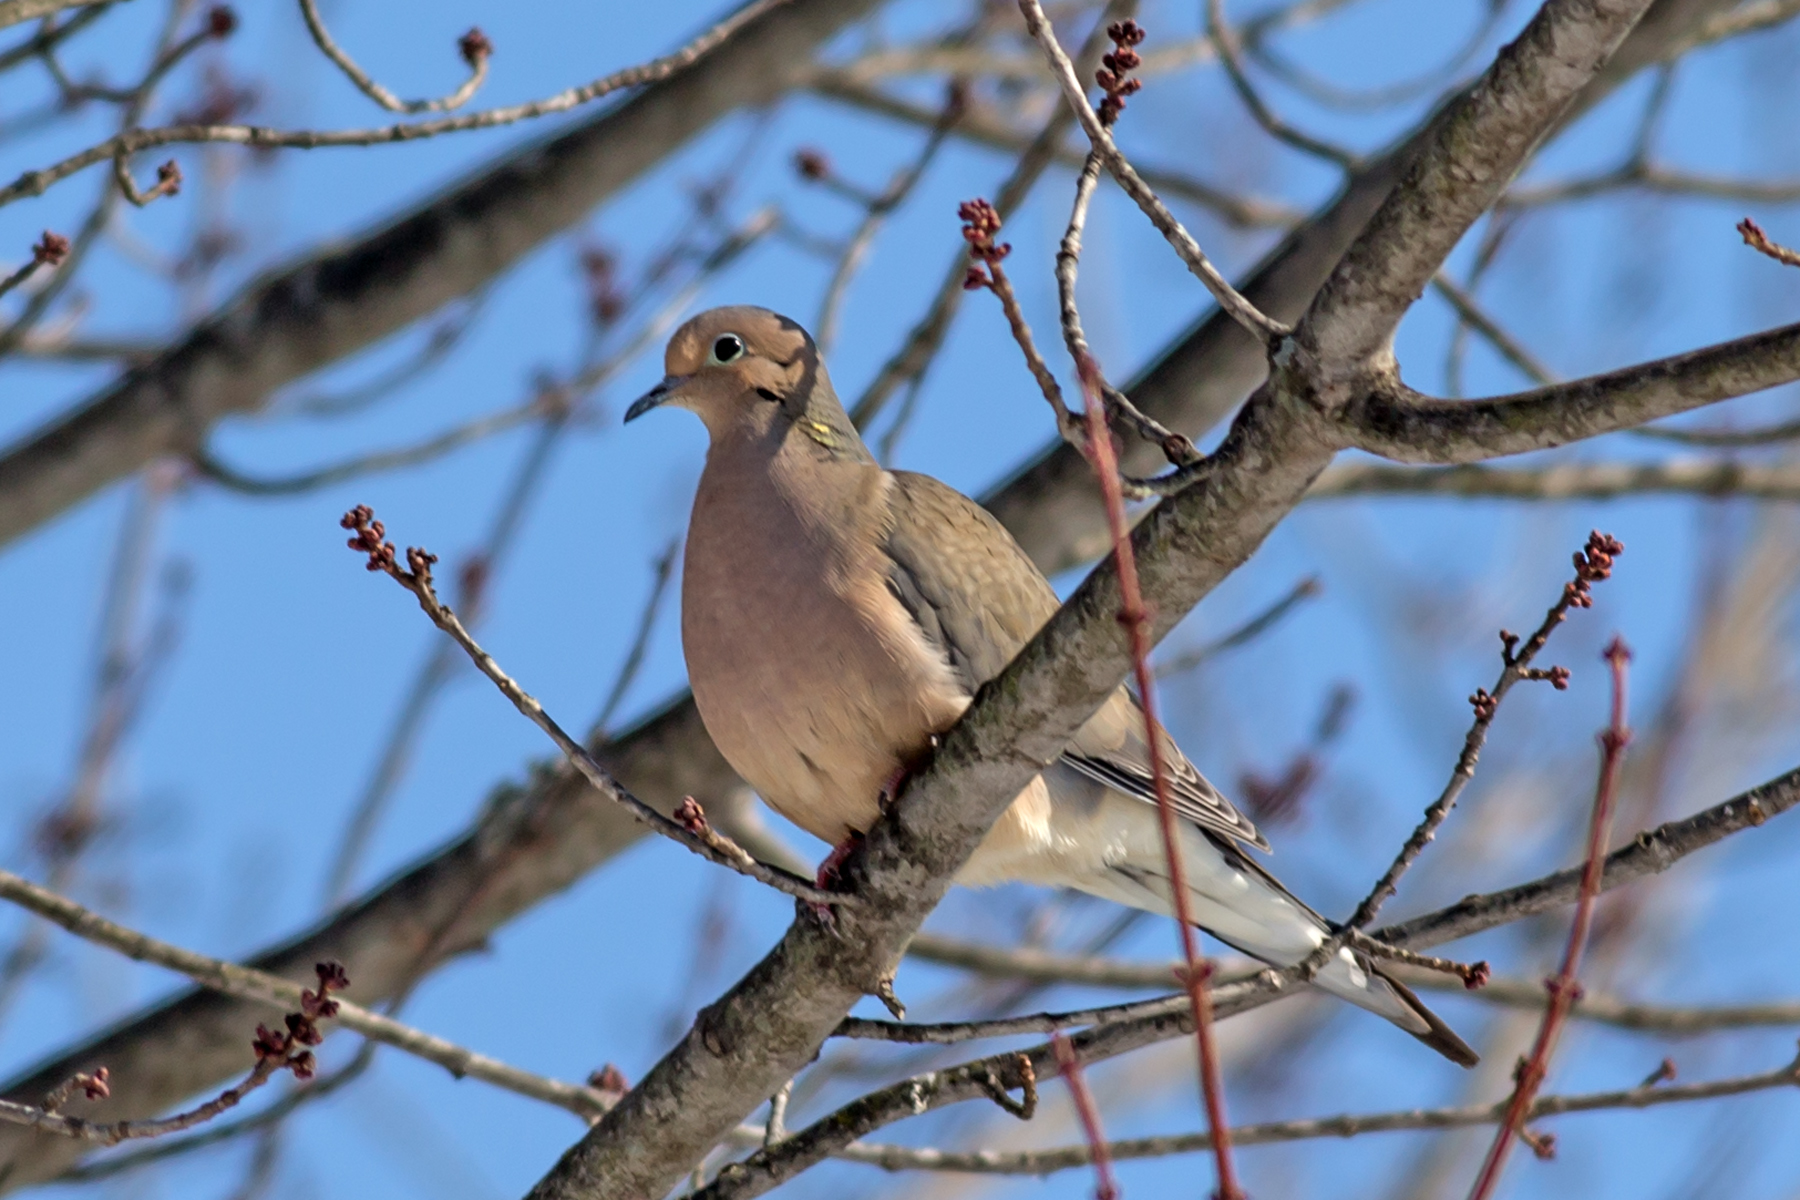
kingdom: Animalia
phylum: Chordata
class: Aves
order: Columbiformes
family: Columbidae
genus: Zenaida
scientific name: Zenaida macroura
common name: Mourning dove
